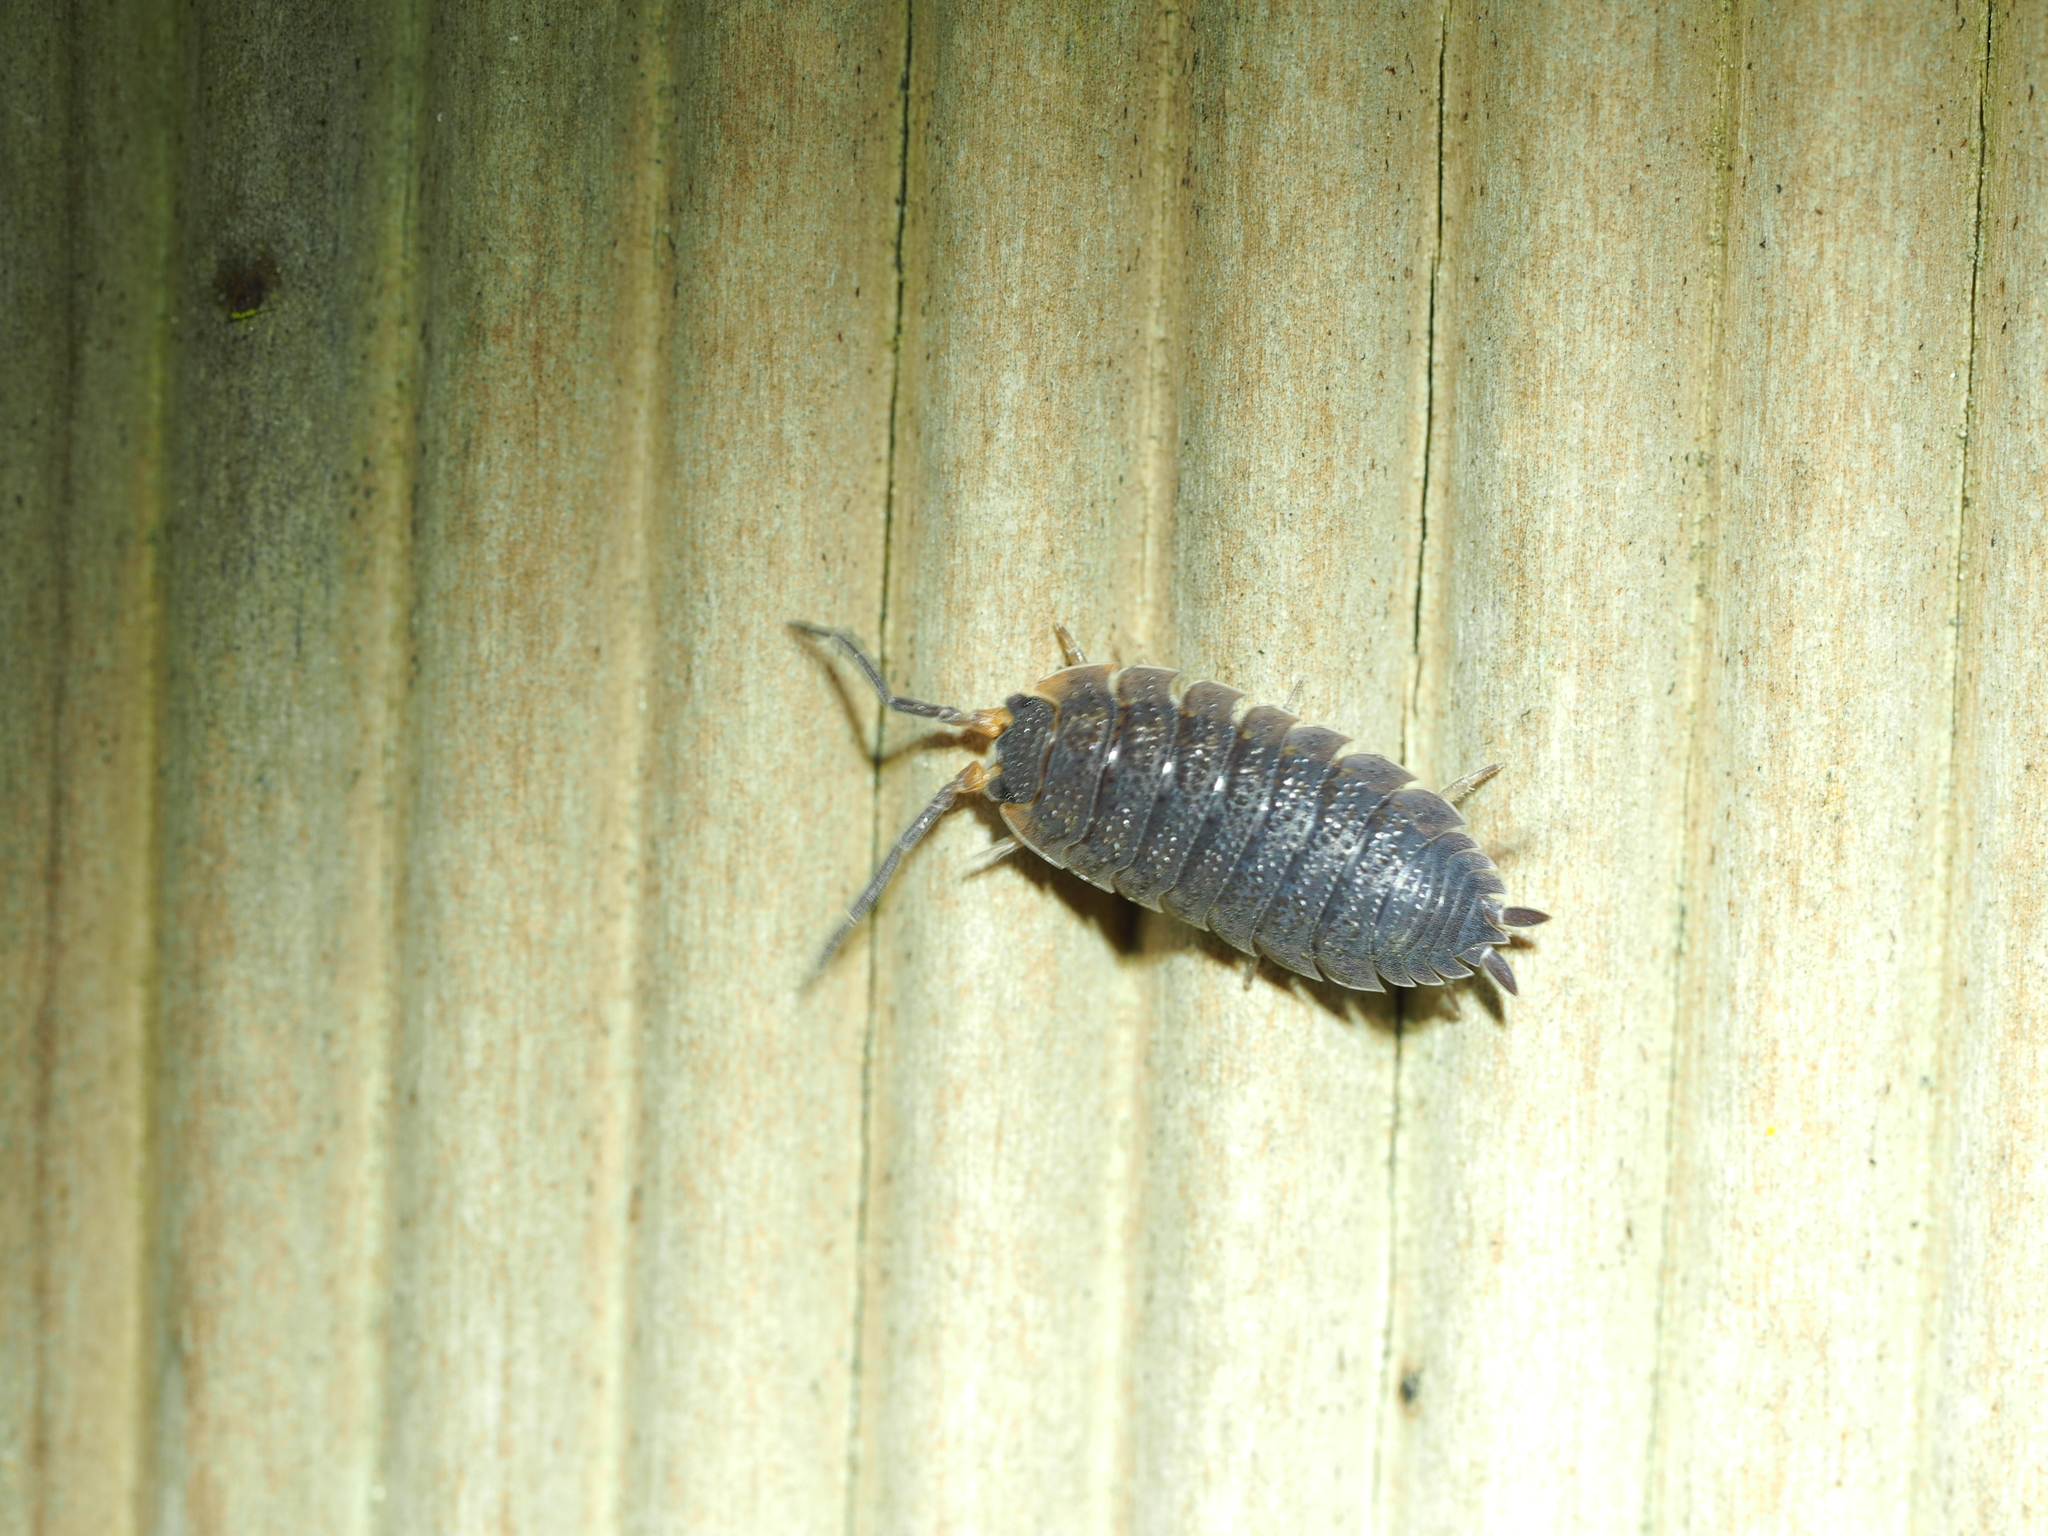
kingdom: Animalia
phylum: Arthropoda
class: Malacostraca
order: Isopoda
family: Porcellionidae
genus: Porcellio
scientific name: Porcellio scaber
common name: Common rough woodlouse
